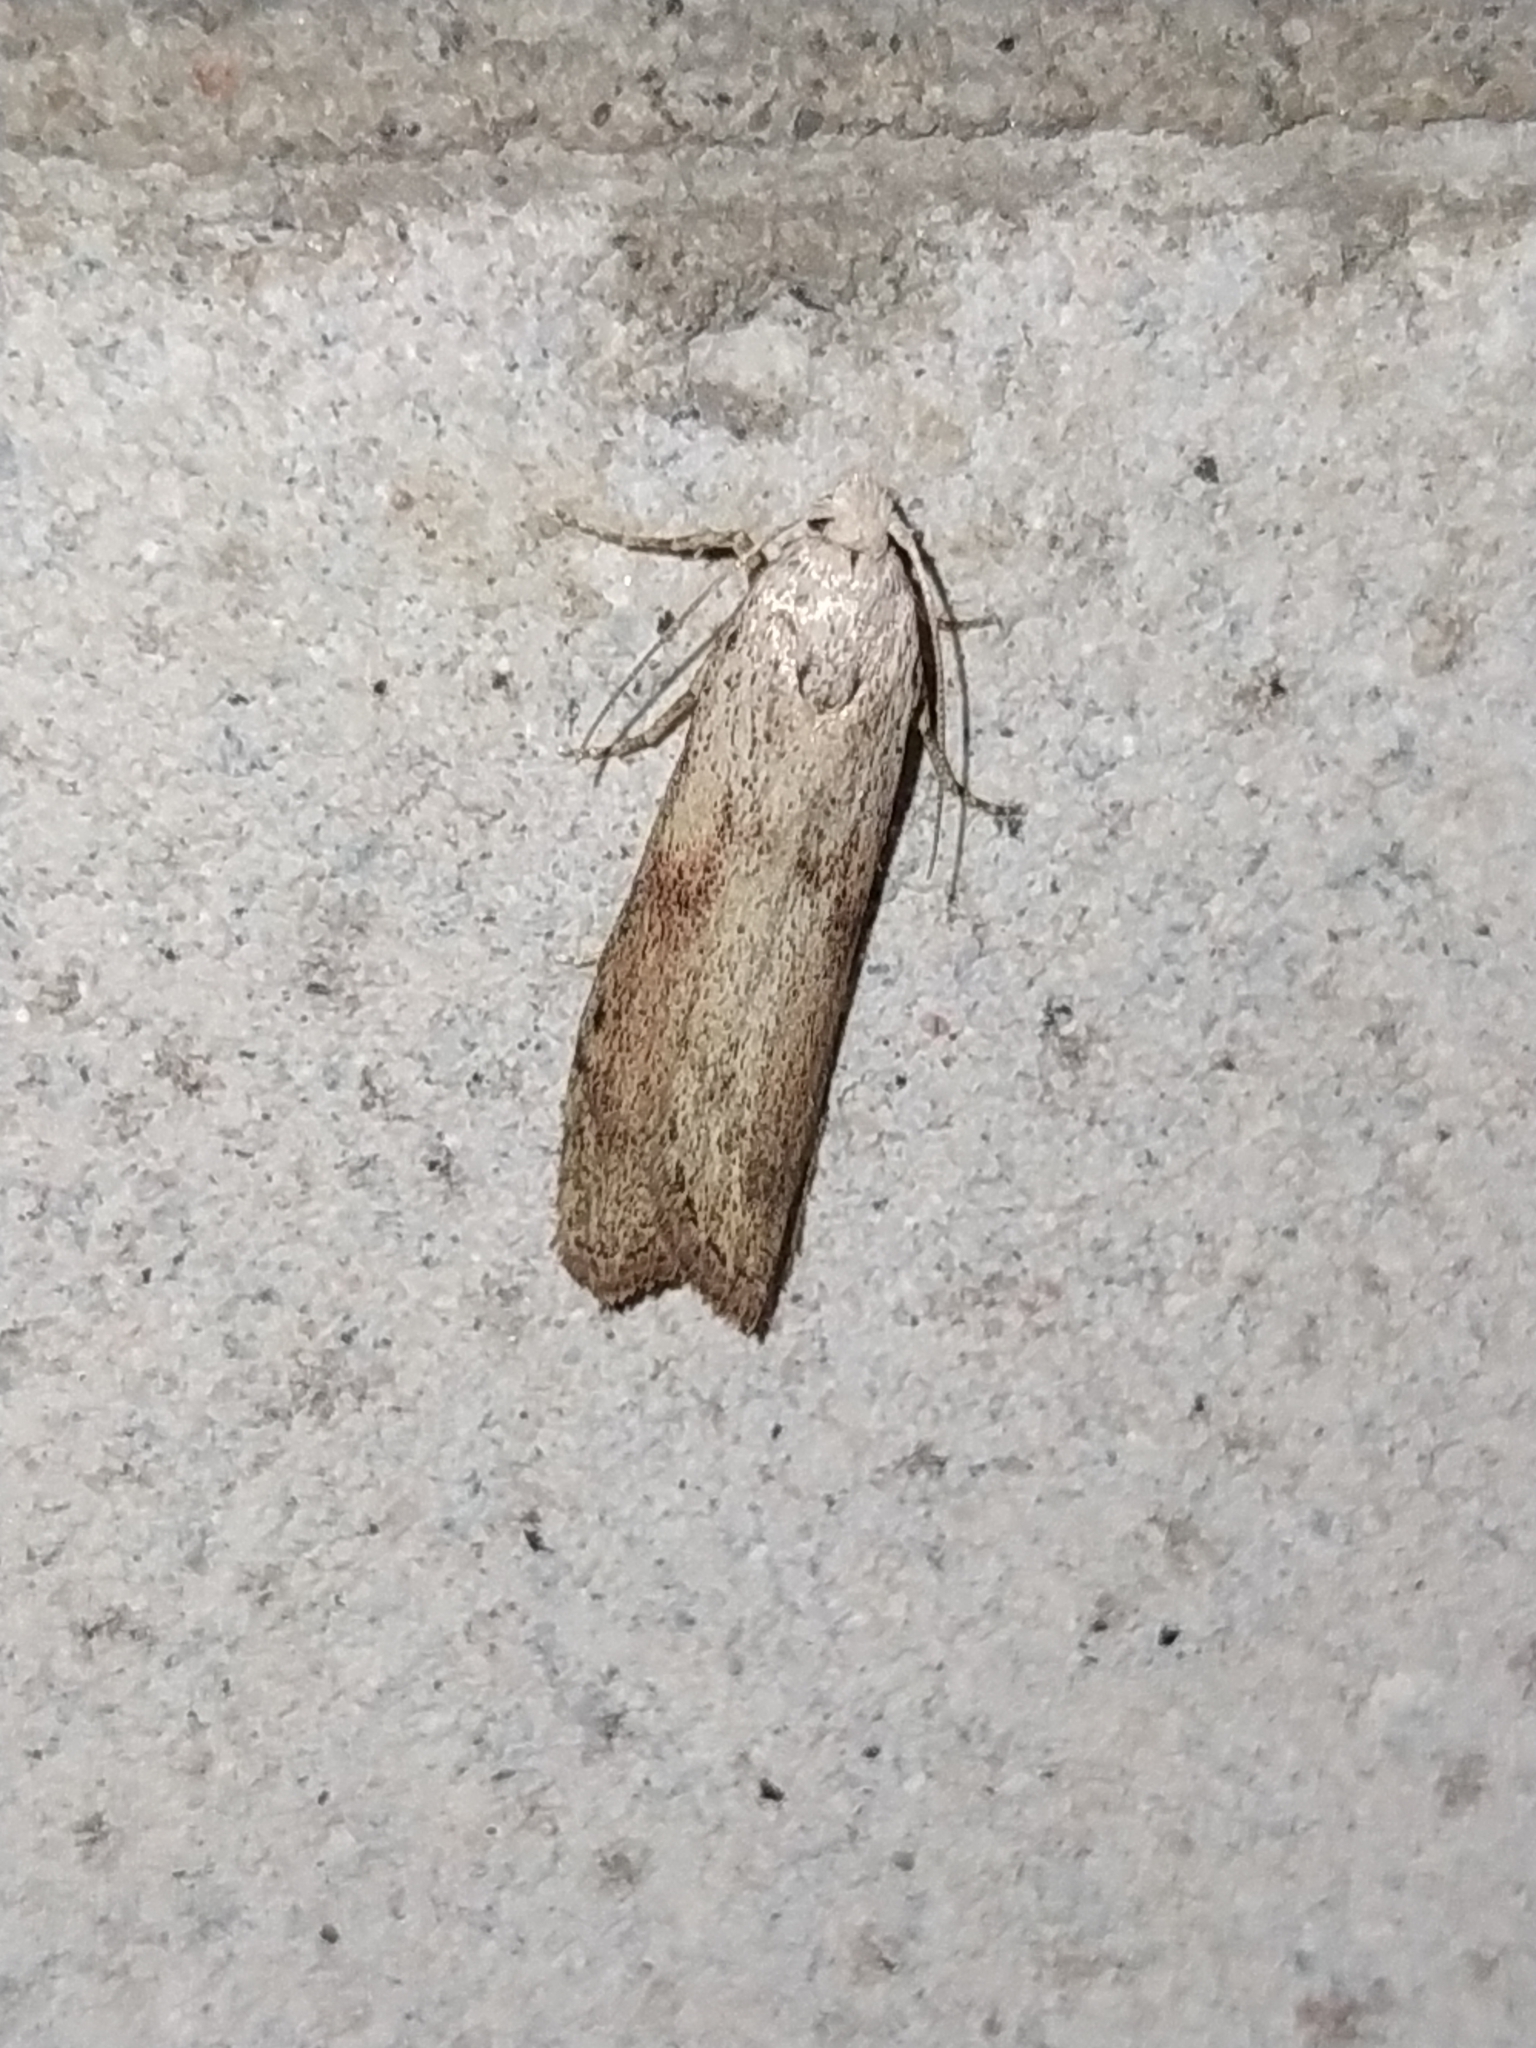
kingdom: Animalia
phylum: Arthropoda
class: Insecta
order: Lepidoptera
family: Pyralidae
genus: Aphomia
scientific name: Aphomia sociella
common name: Bee moth
